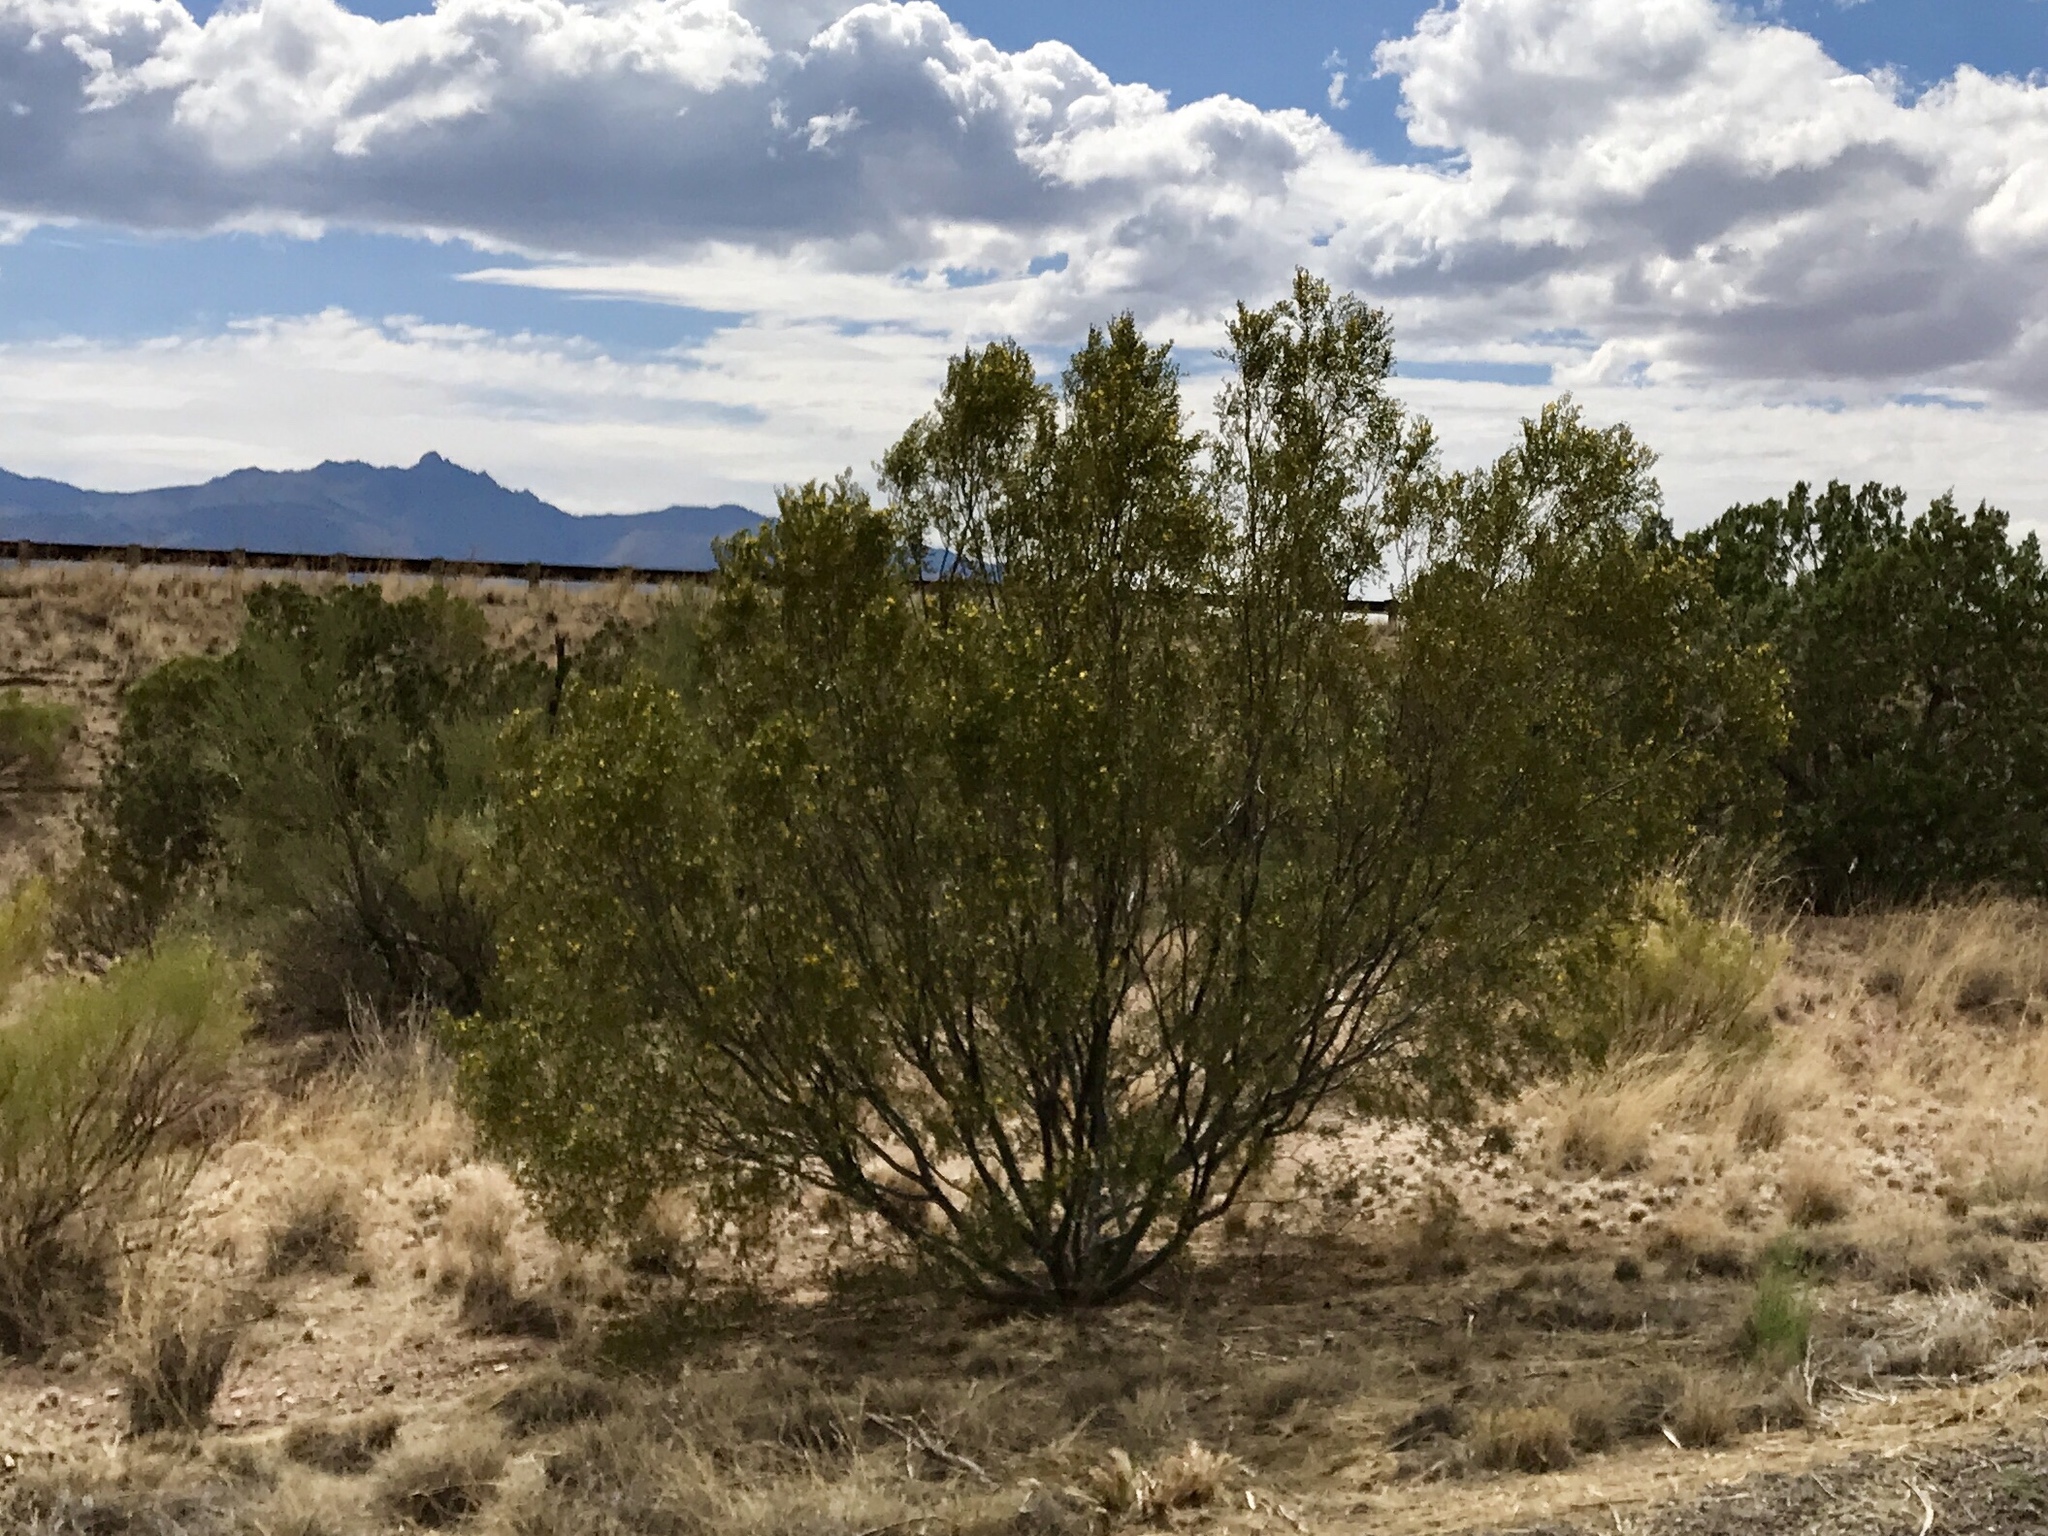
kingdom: Plantae
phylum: Tracheophyta
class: Magnoliopsida
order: Zygophyllales
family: Zygophyllaceae
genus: Larrea
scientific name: Larrea tridentata
